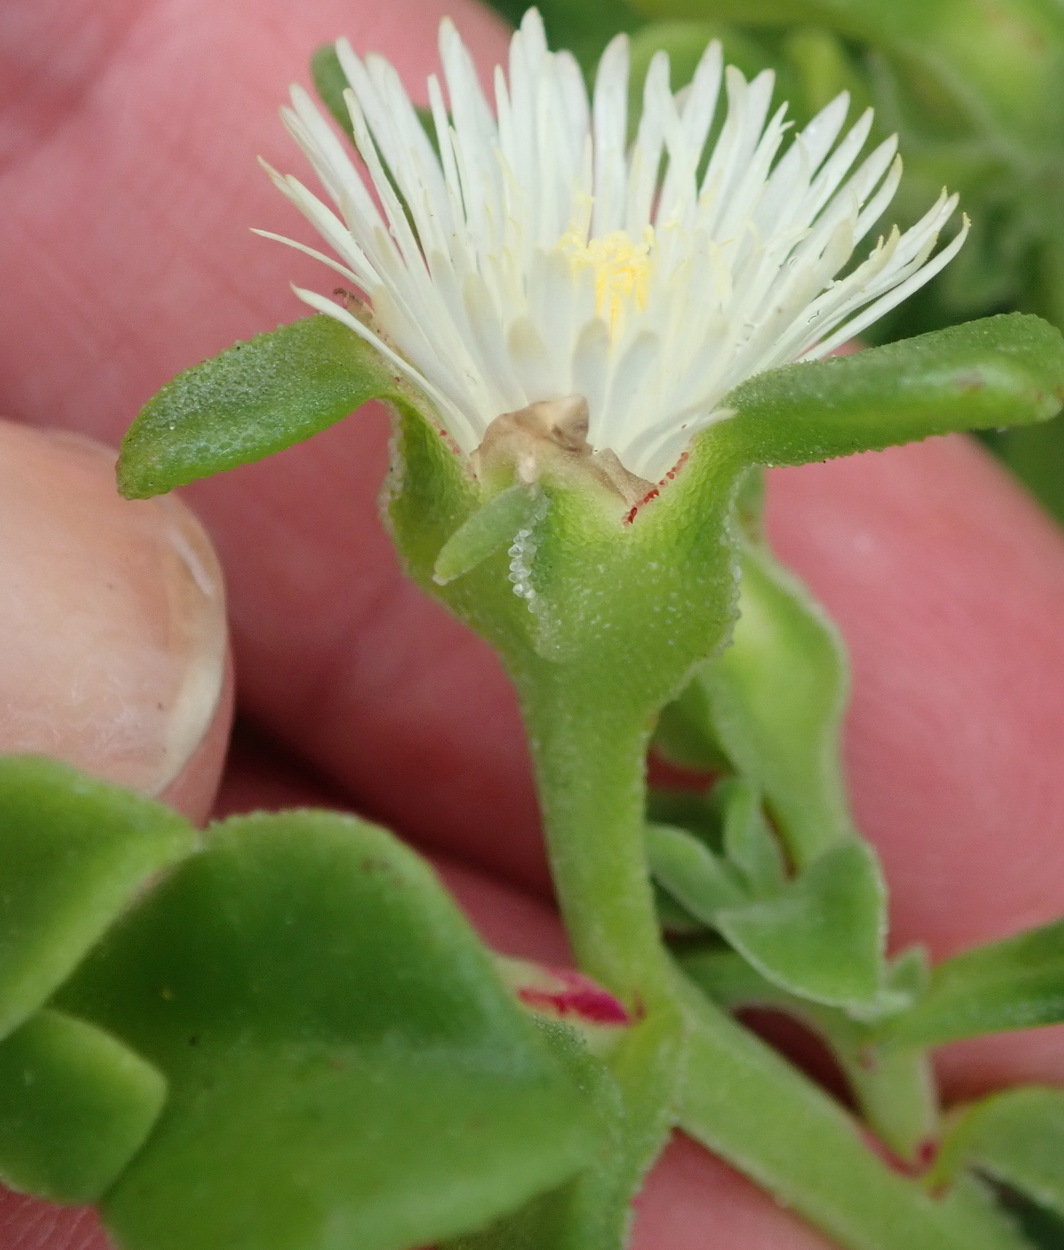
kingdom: Plantae
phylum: Tracheophyta
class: Magnoliopsida
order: Caryophyllales
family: Aizoaceae
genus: Mesembryanthemum
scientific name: Mesembryanthemum aitonis
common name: Angled iceplant
